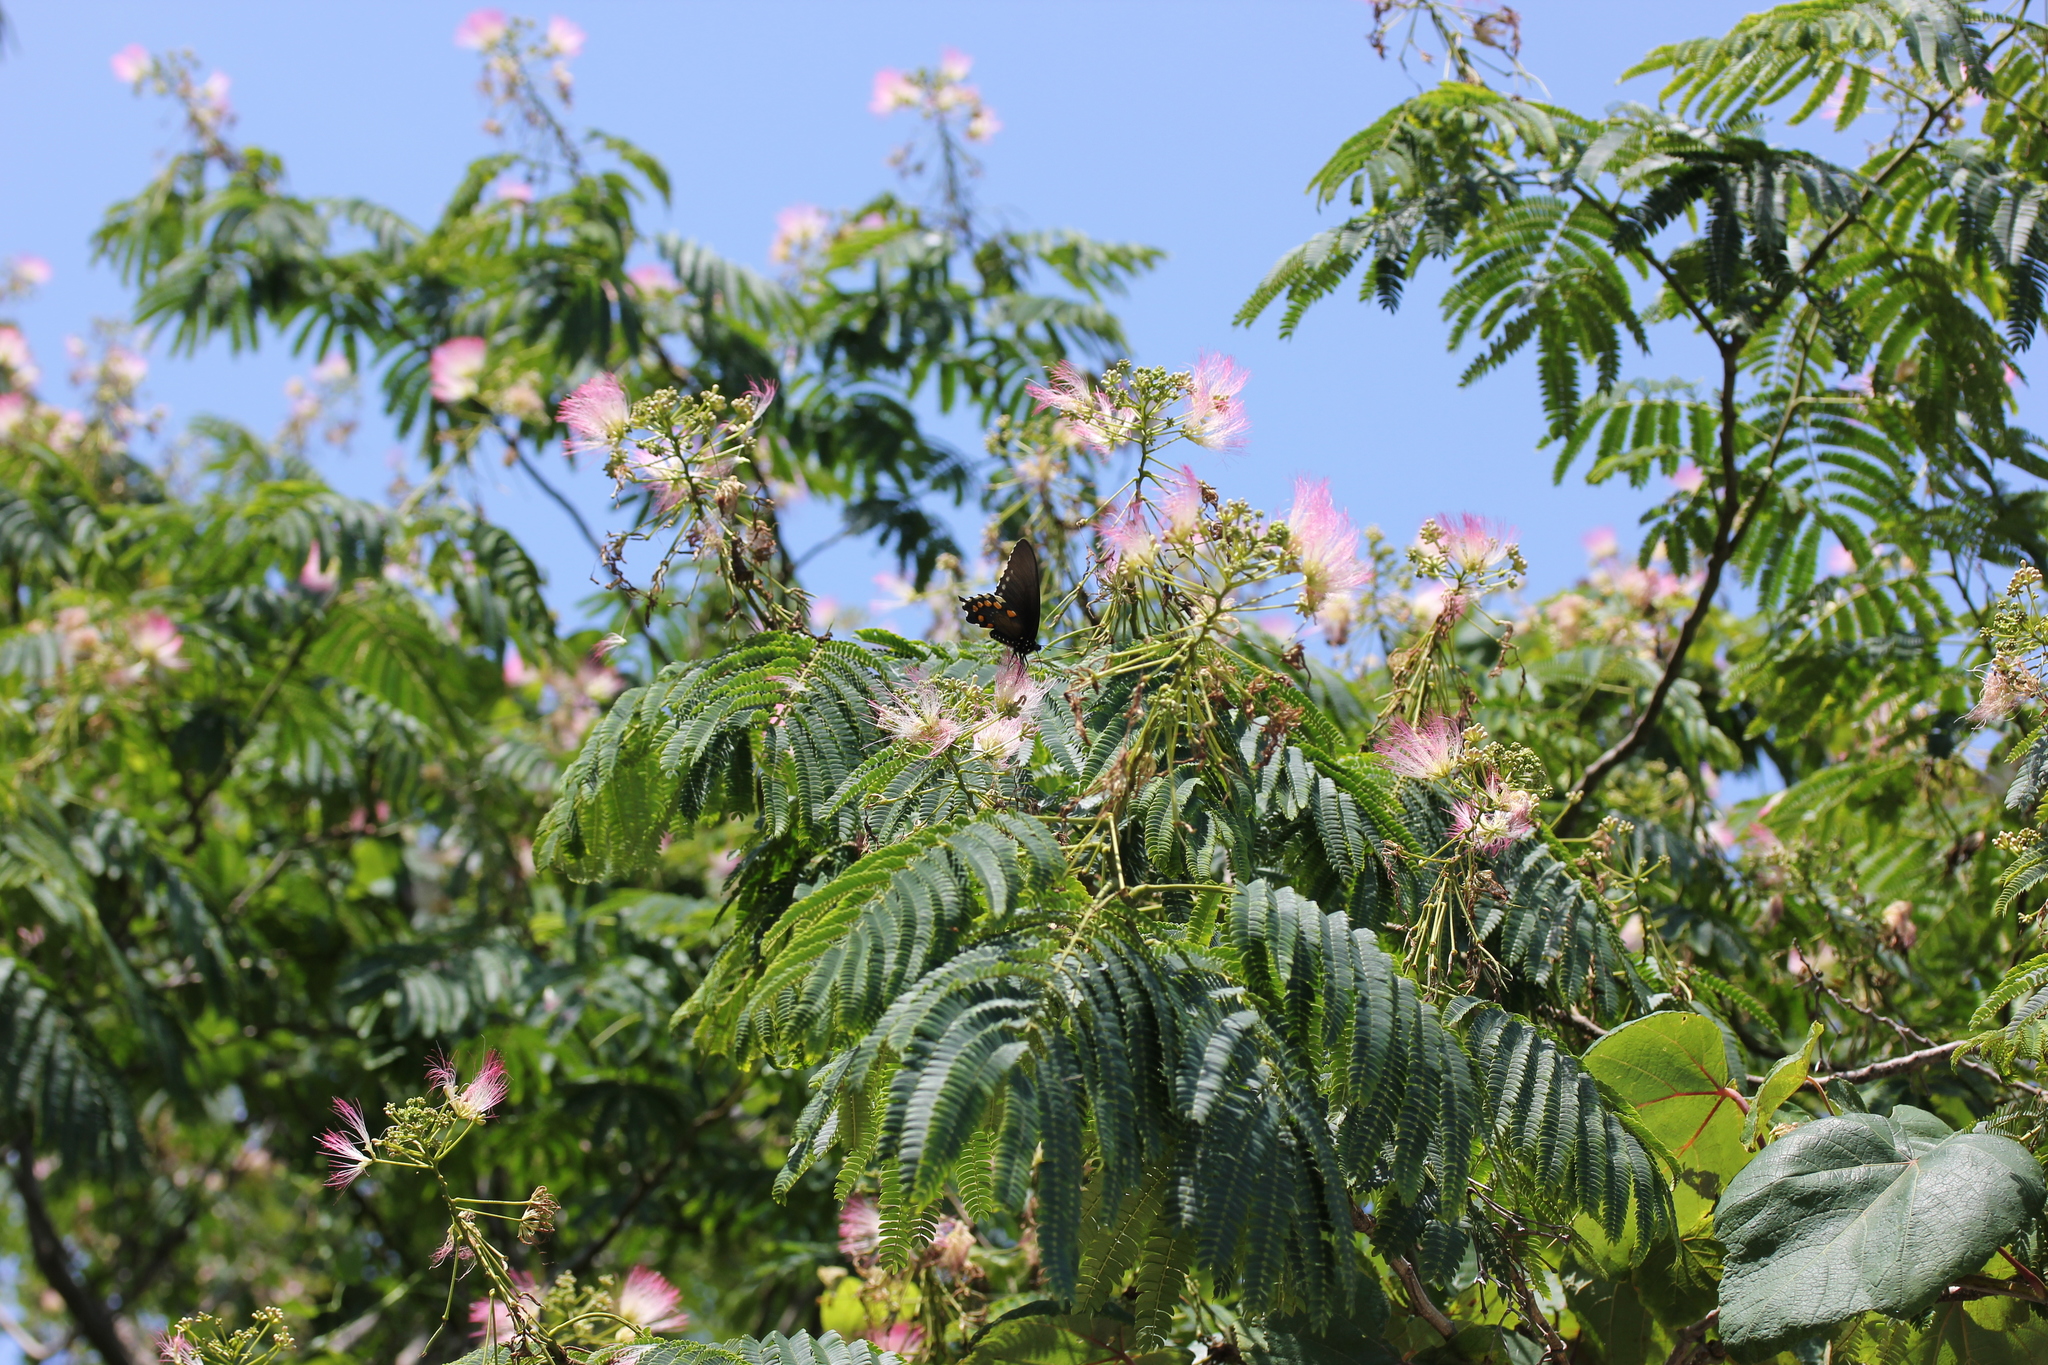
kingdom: Plantae
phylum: Tracheophyta
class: Magnoliopsida
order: Fabales
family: Fabaceae
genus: Albizia
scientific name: Albizia julibrissin
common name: Silktree
